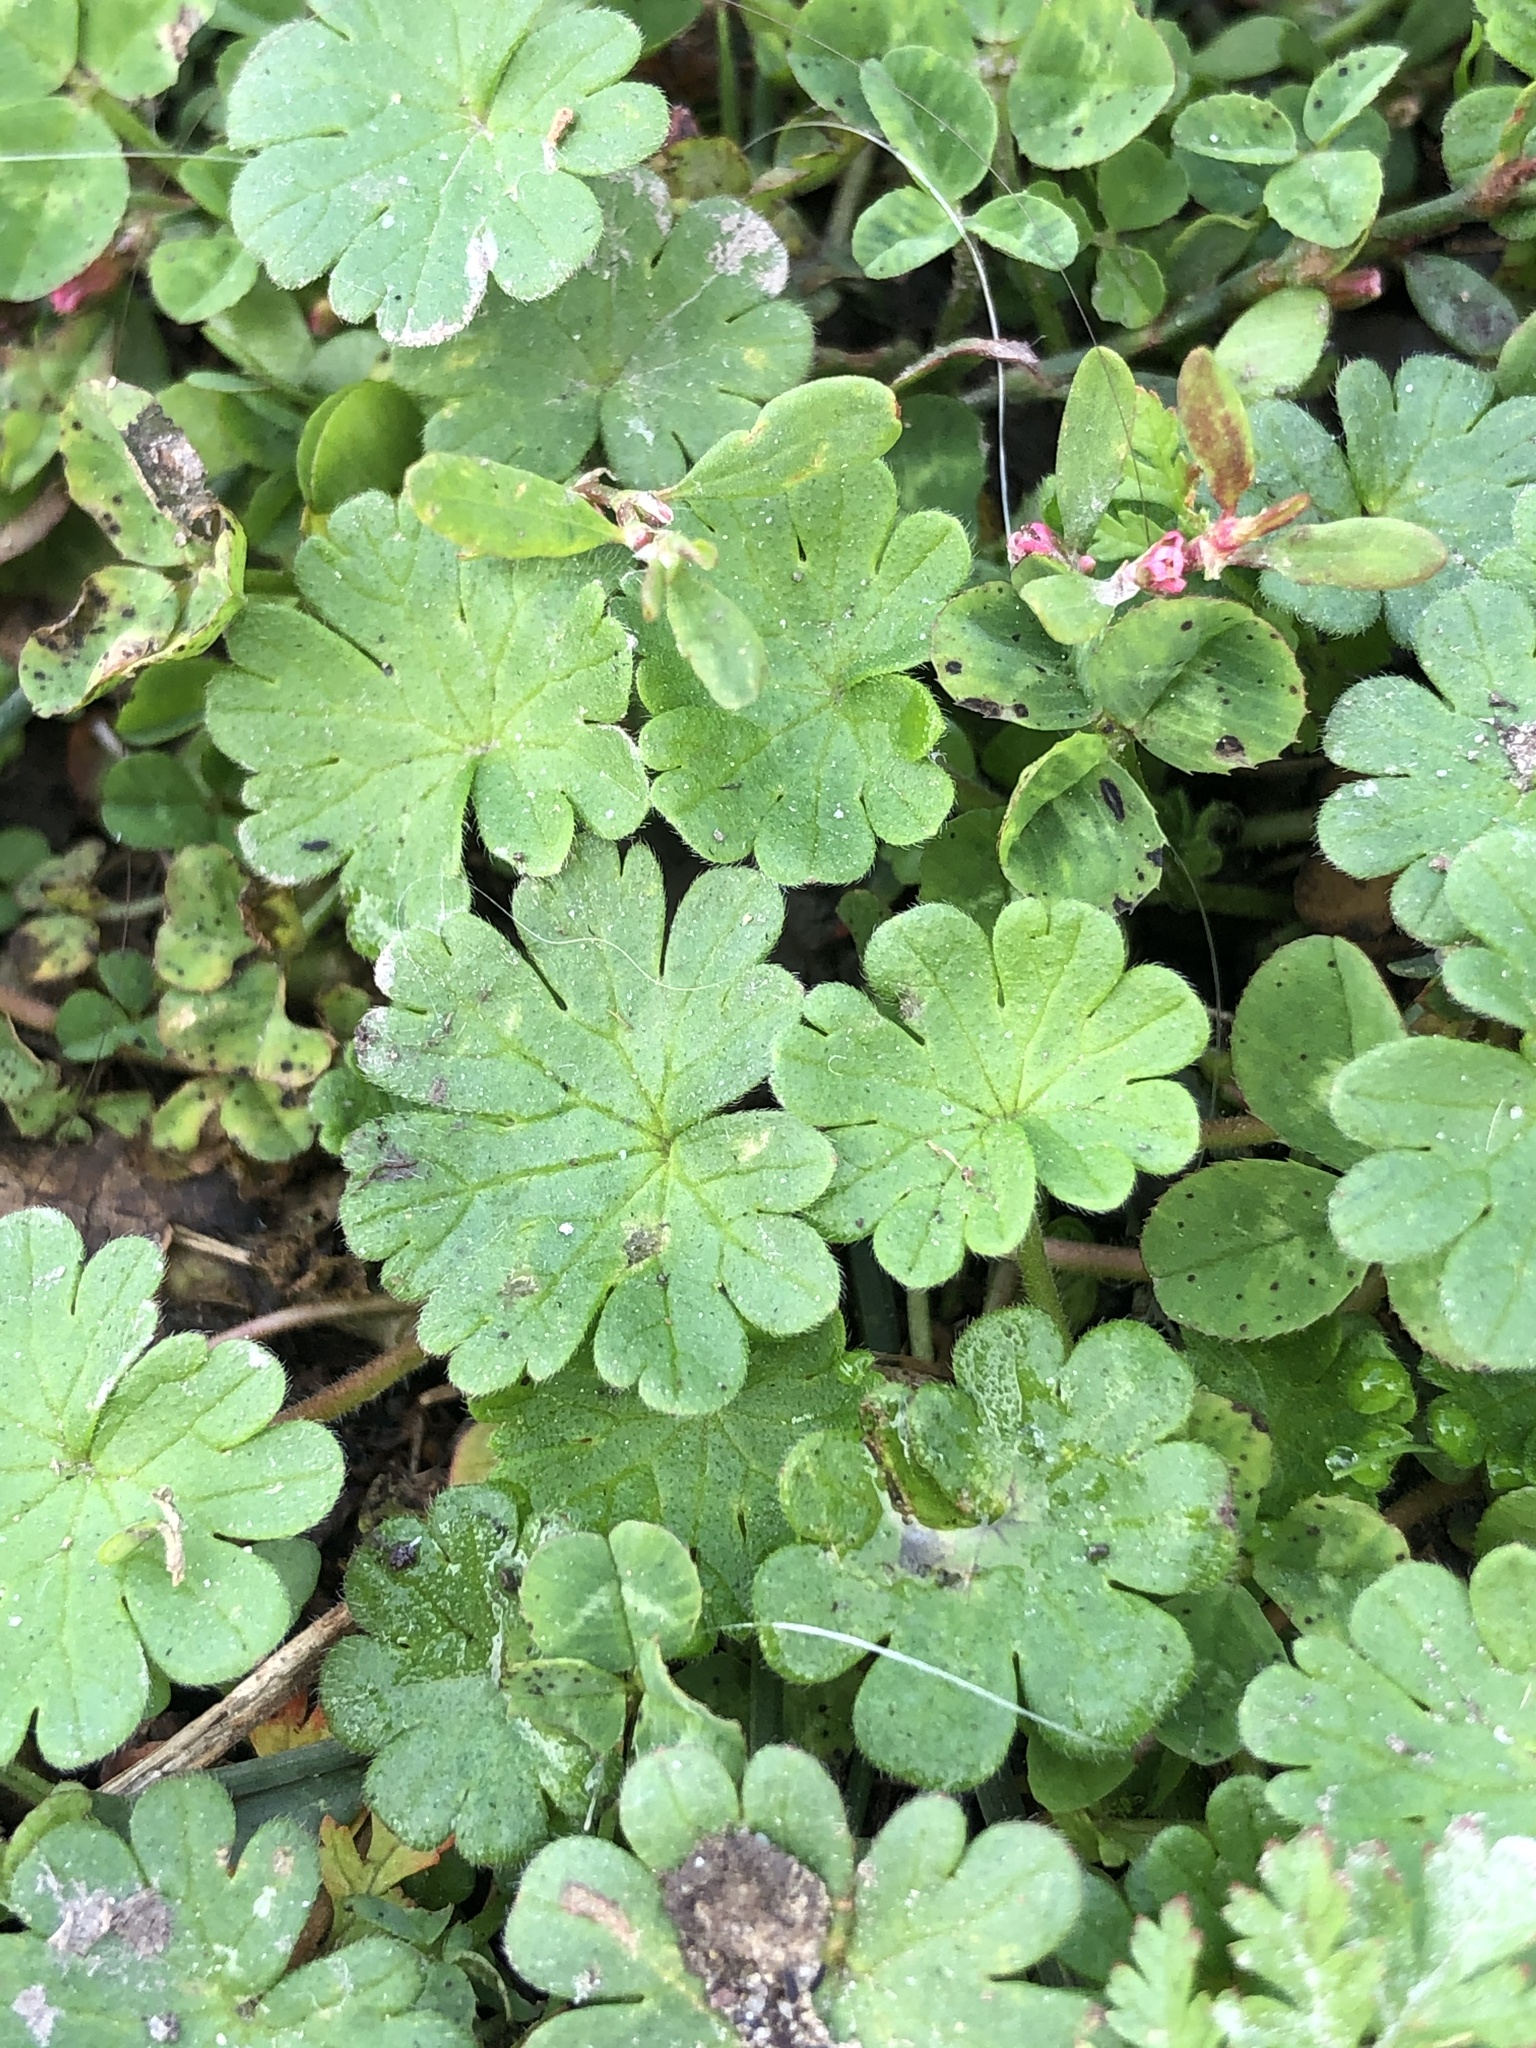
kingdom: Plantae
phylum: Tracheophyta
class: Magnoliopsida
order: Geraniales
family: Geraniaceae
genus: Geranium
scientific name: Geranium molle
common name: Dove's-foot crane's-bill
